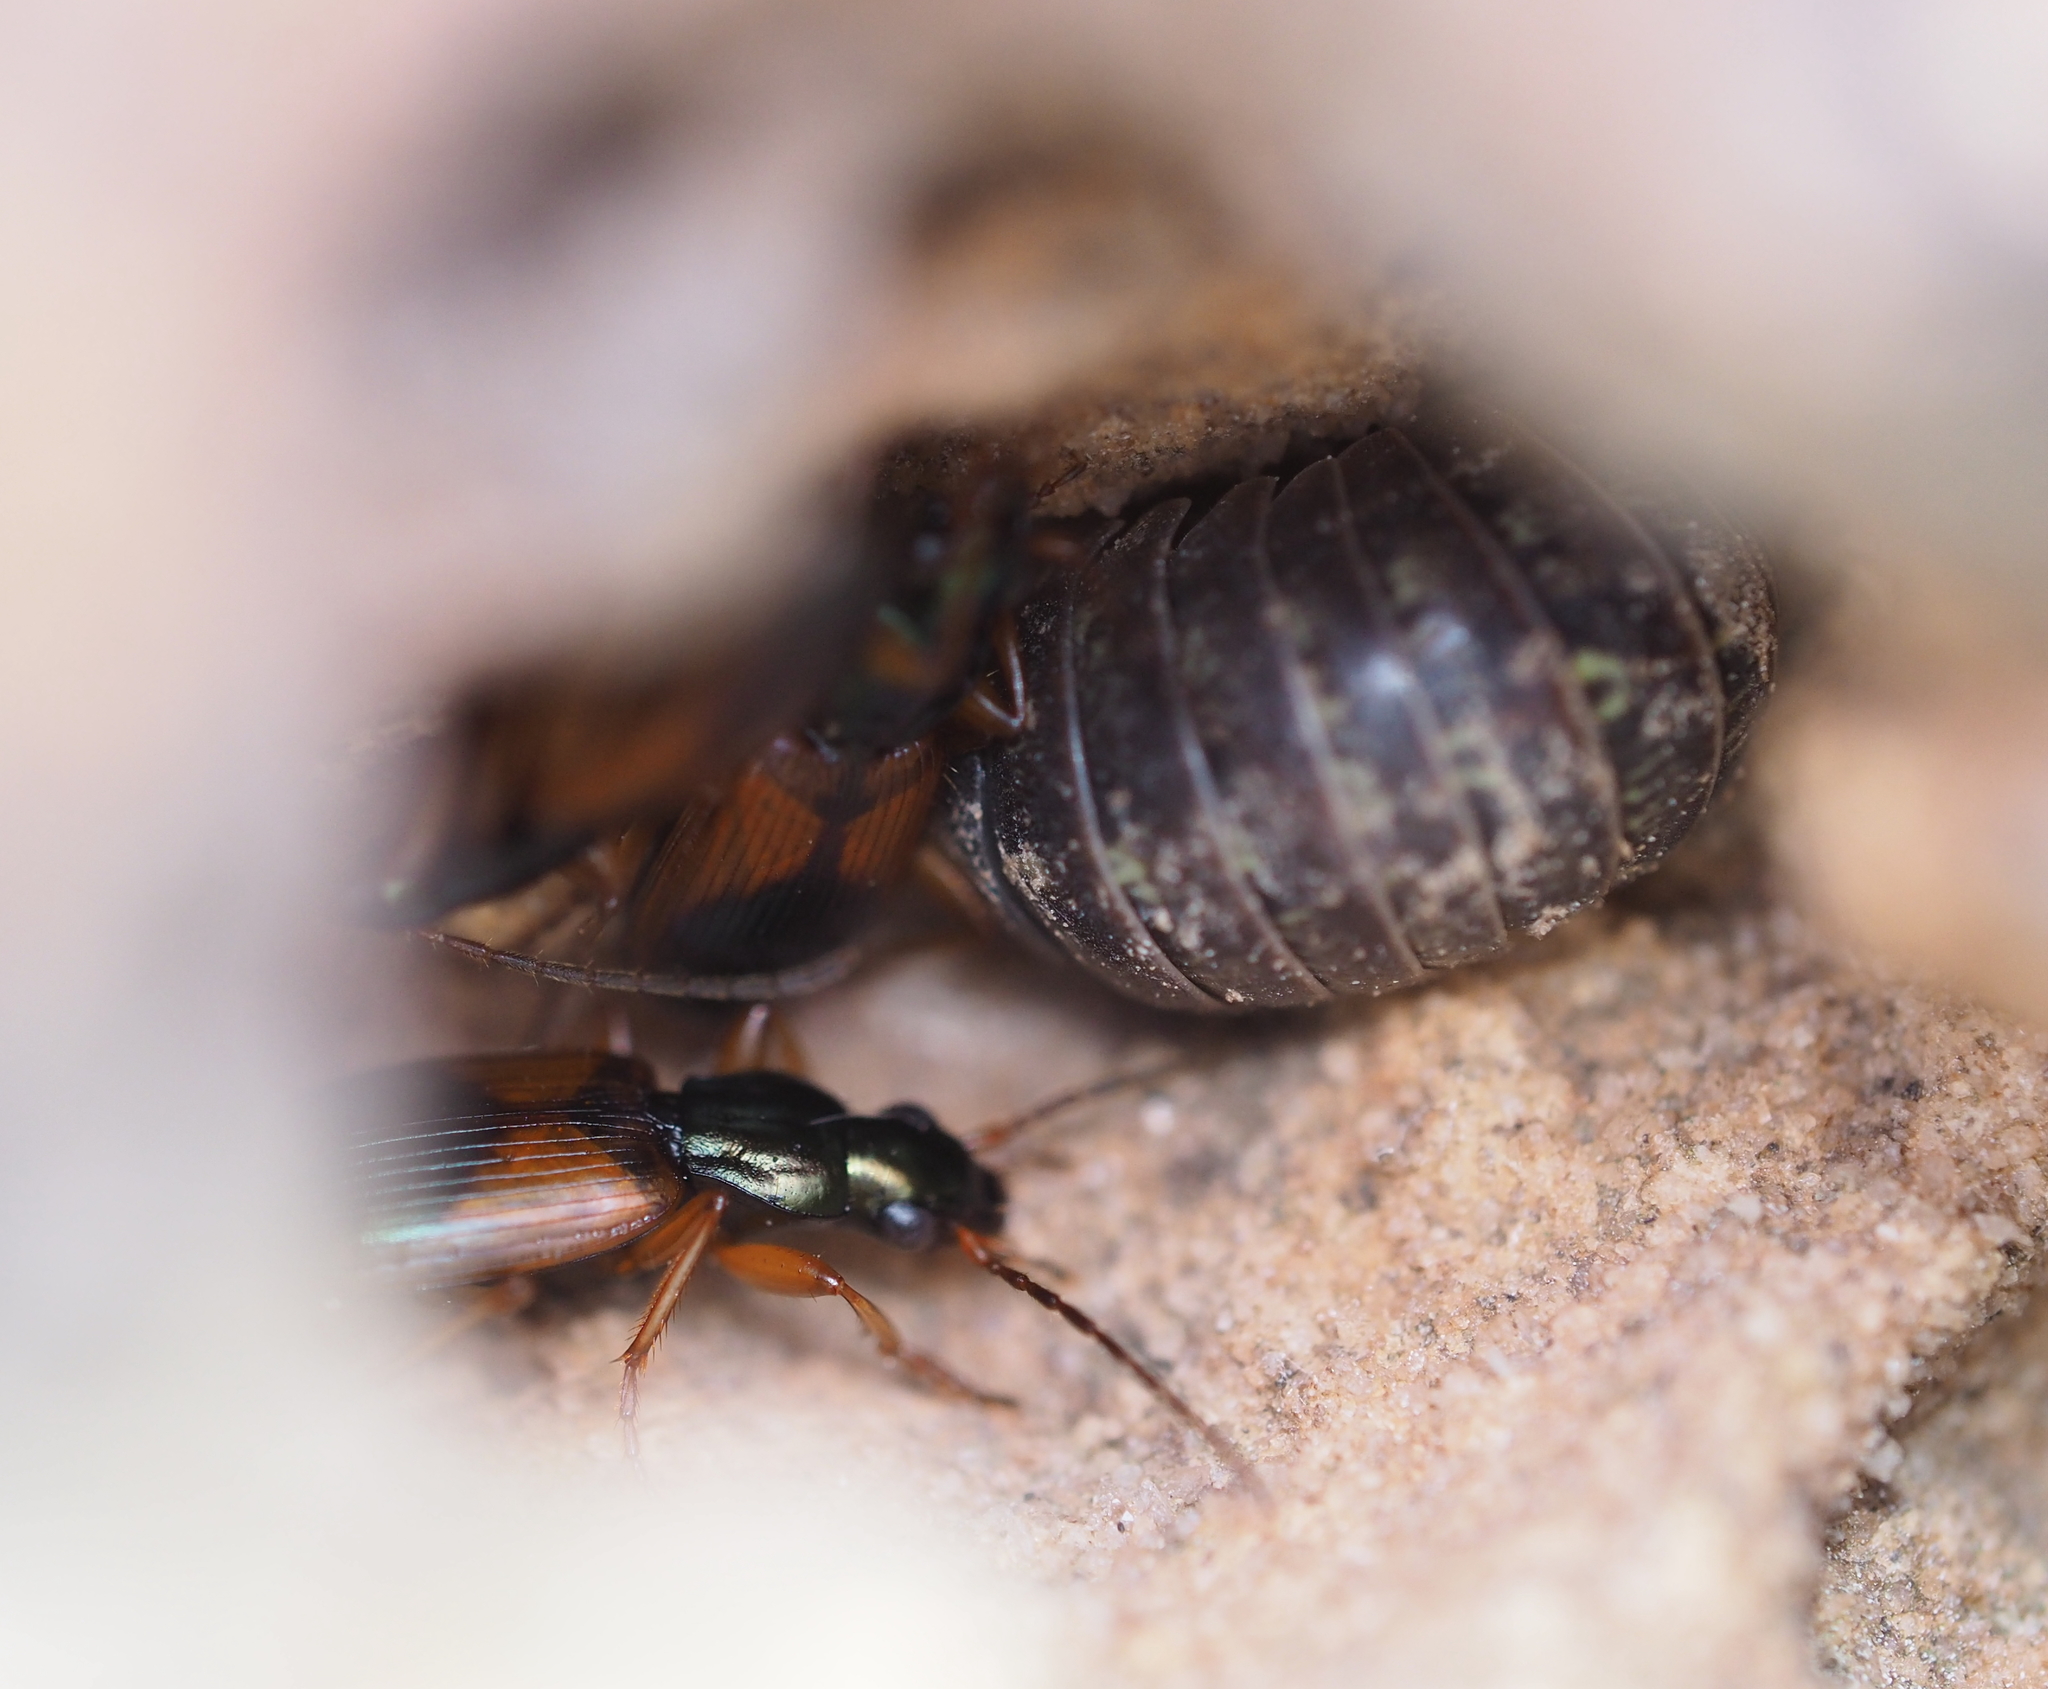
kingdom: Animalia
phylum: Arthropoda
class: Insecta
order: Coleoptera
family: Carabidae
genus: Anchomenus
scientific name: Anchomenus dorsalis
